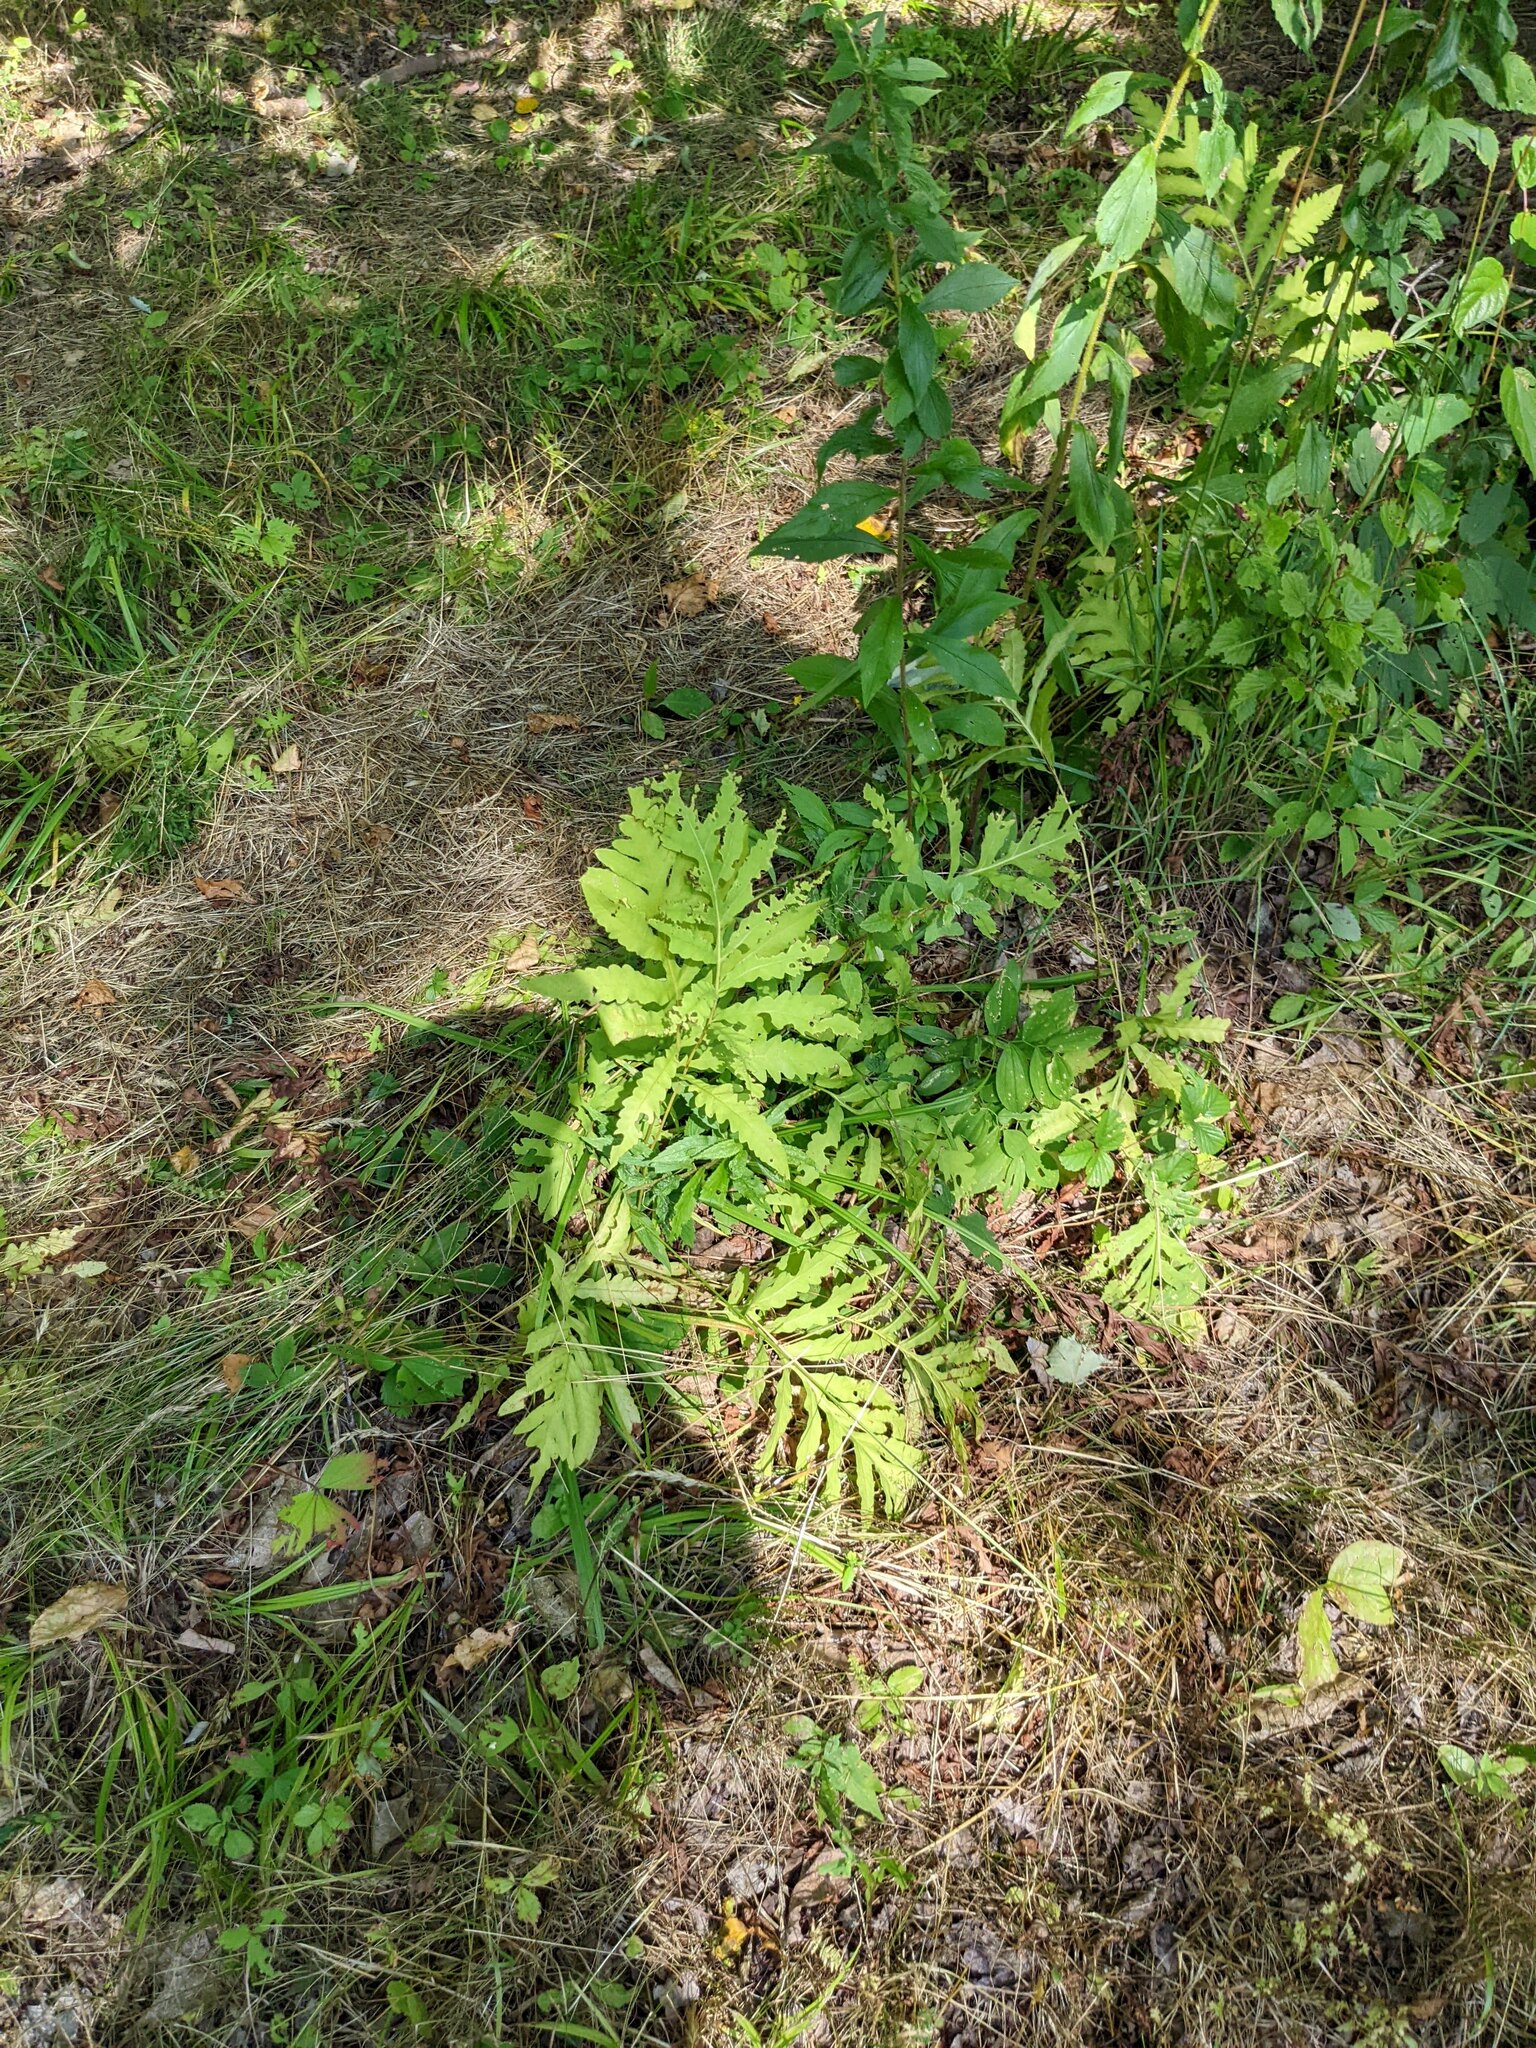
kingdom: Plantae
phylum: Tracheophyta
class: Polypodiopsida
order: Polypodiales
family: Onocleaceae
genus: Onoclea
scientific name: Onoclea sensibilis
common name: Sensitive fern
